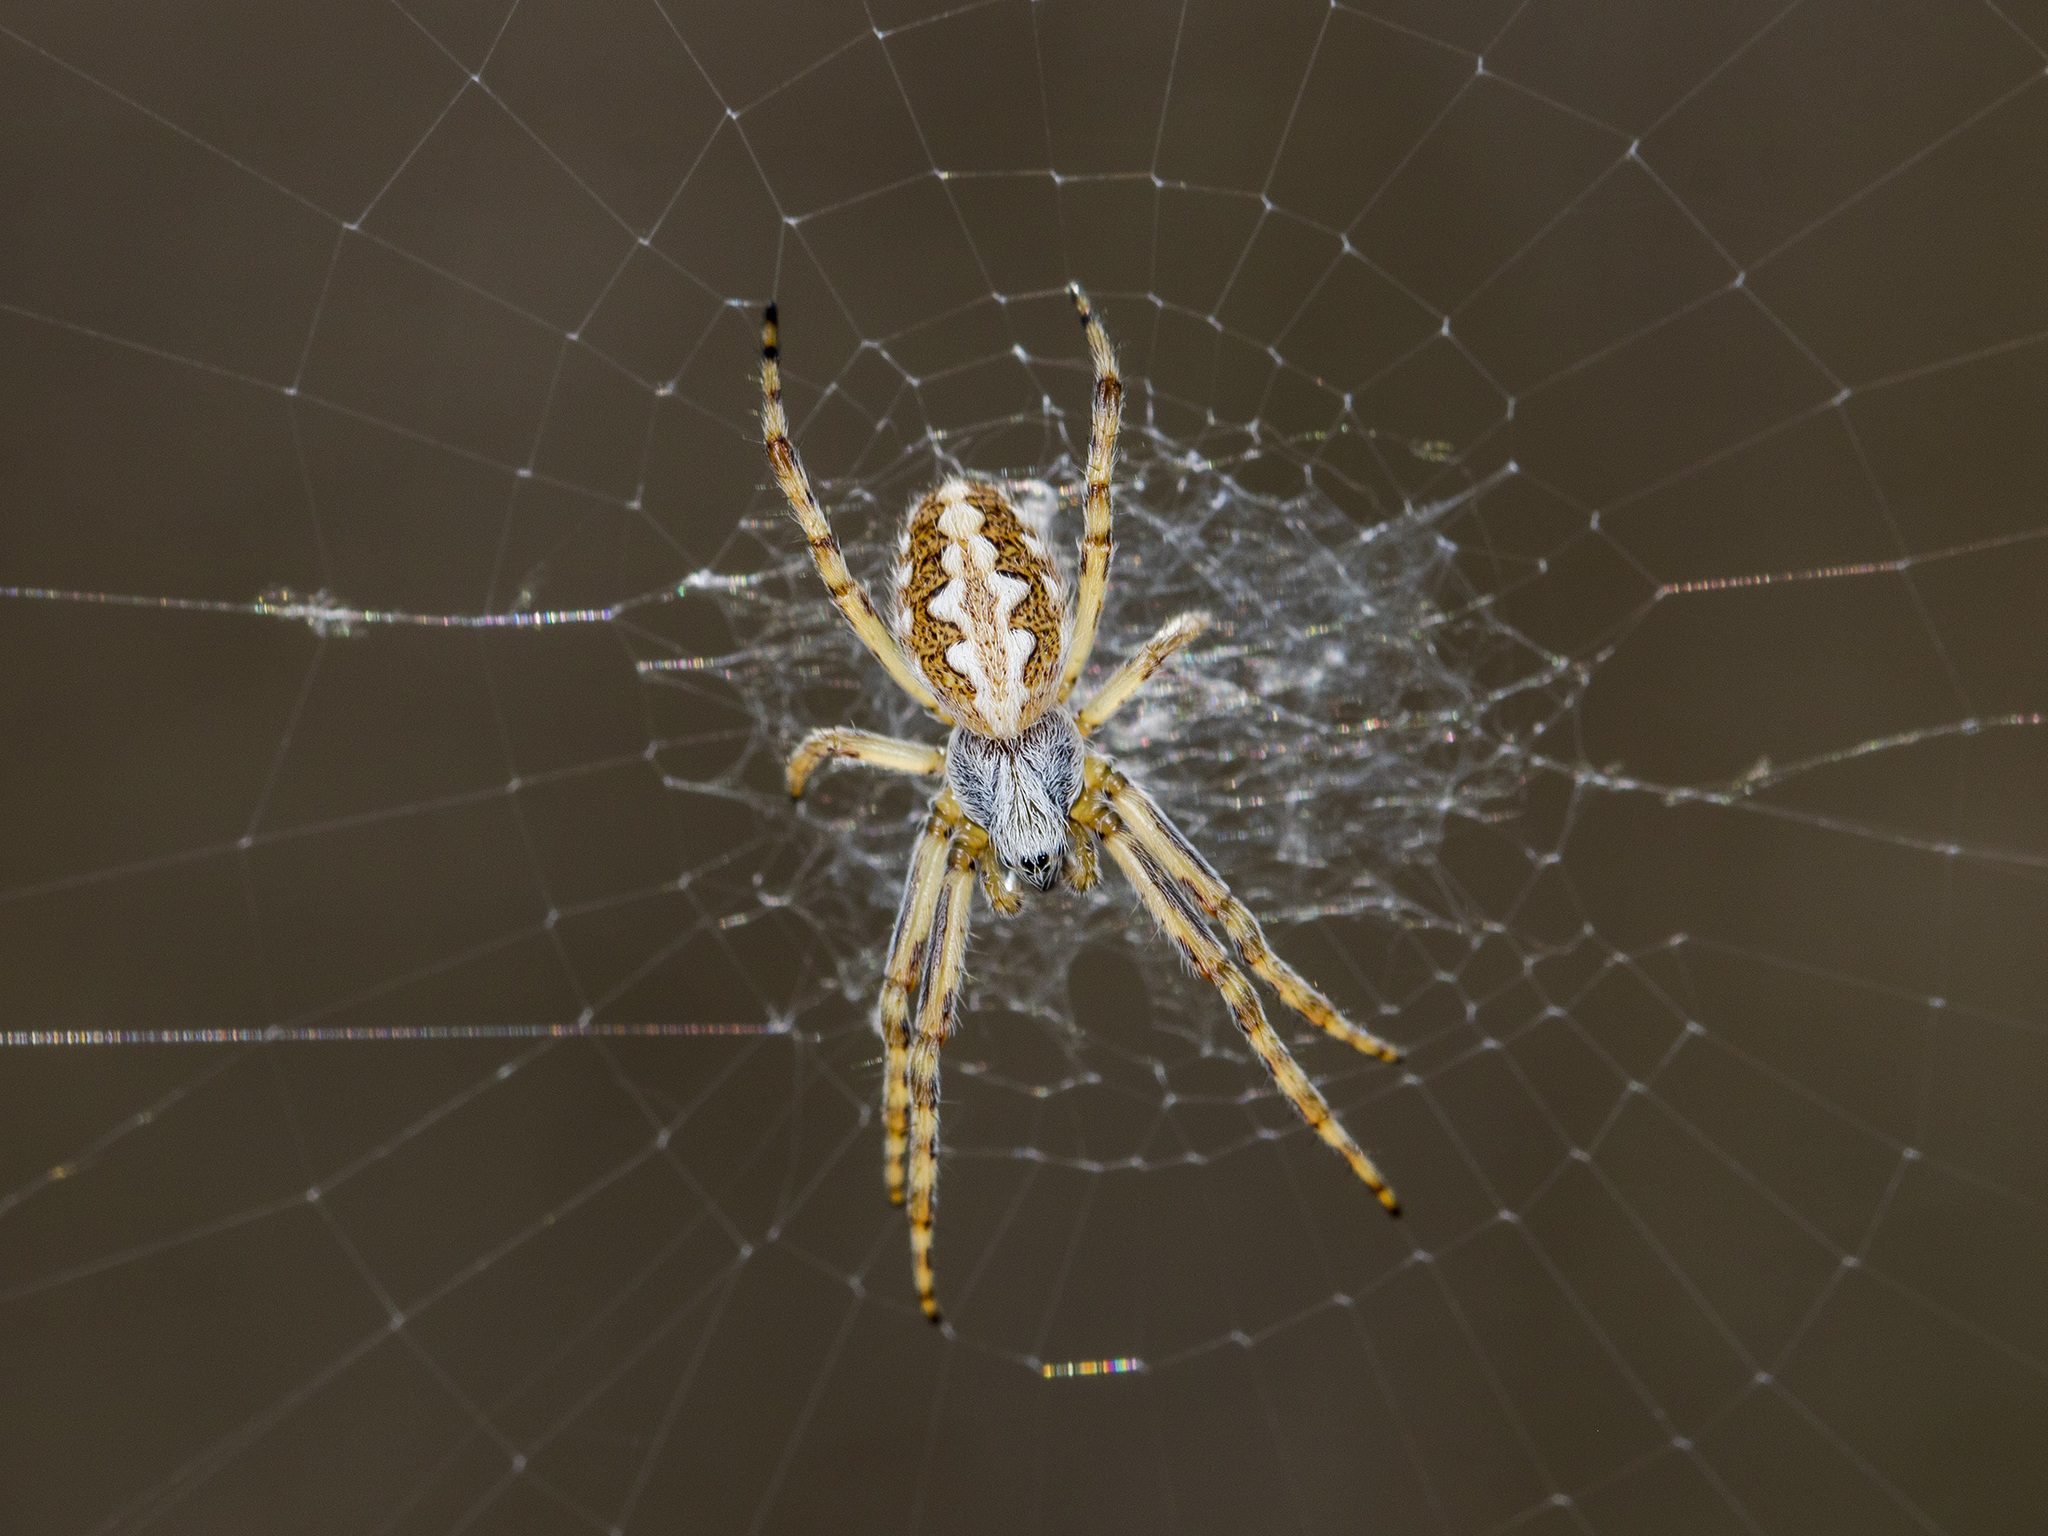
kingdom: Animalia
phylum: Arthropoda
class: Arachnida
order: Araneae
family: Araneidae
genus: Aculepeira
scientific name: Aculepeira armida
